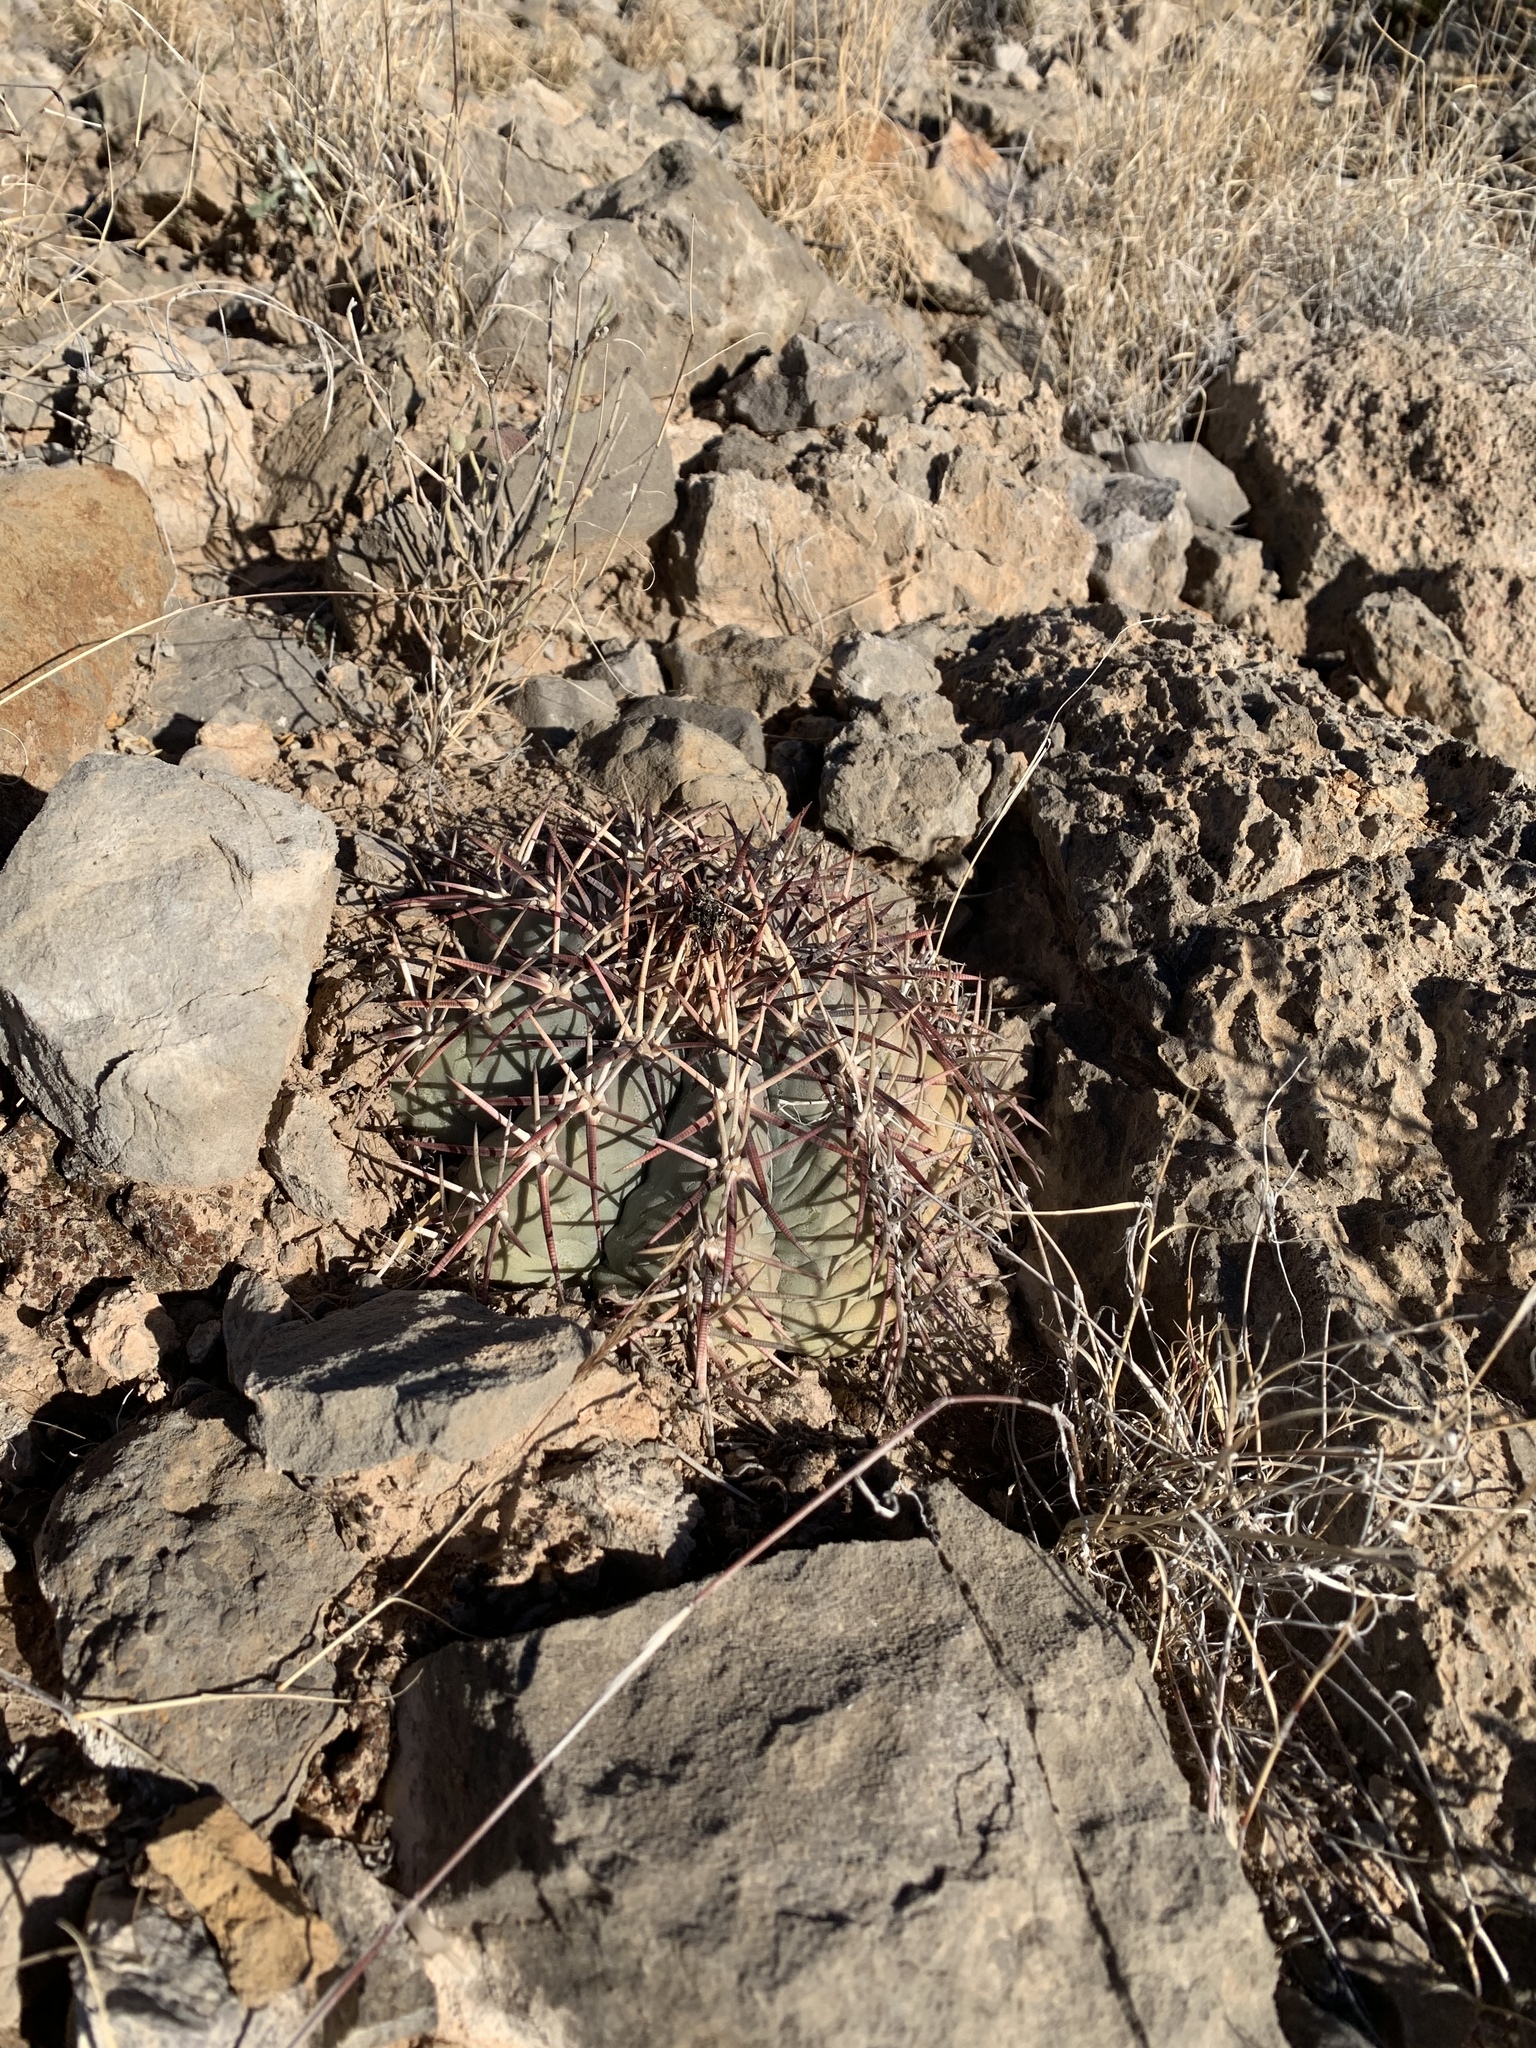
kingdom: Plantae
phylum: Tracheophyta
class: Magnoliopsida
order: Caryophyllales
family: Cactaceae
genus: Echinocactus
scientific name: Echinocactus horizonthalonius
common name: Devilshead
